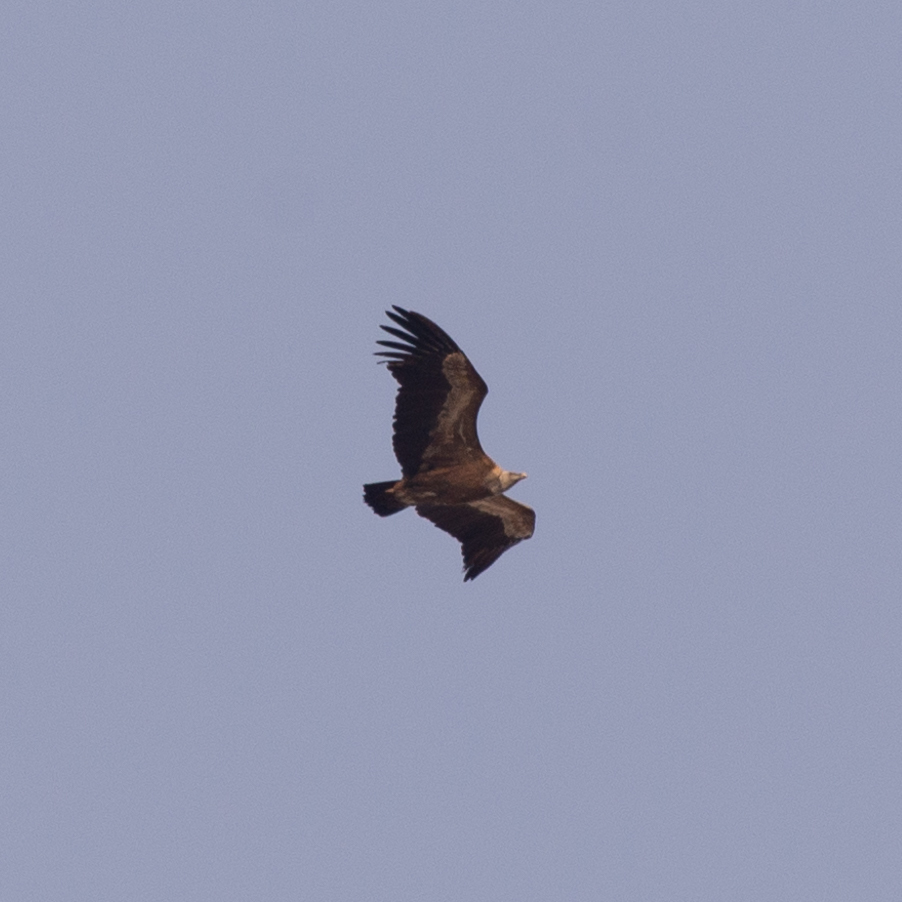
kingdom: Animalia
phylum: Chordata
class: Aves
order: Accipitriformes
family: Accipitridae
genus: Gyps
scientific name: Gyps fulvus
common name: Griffon vulture
